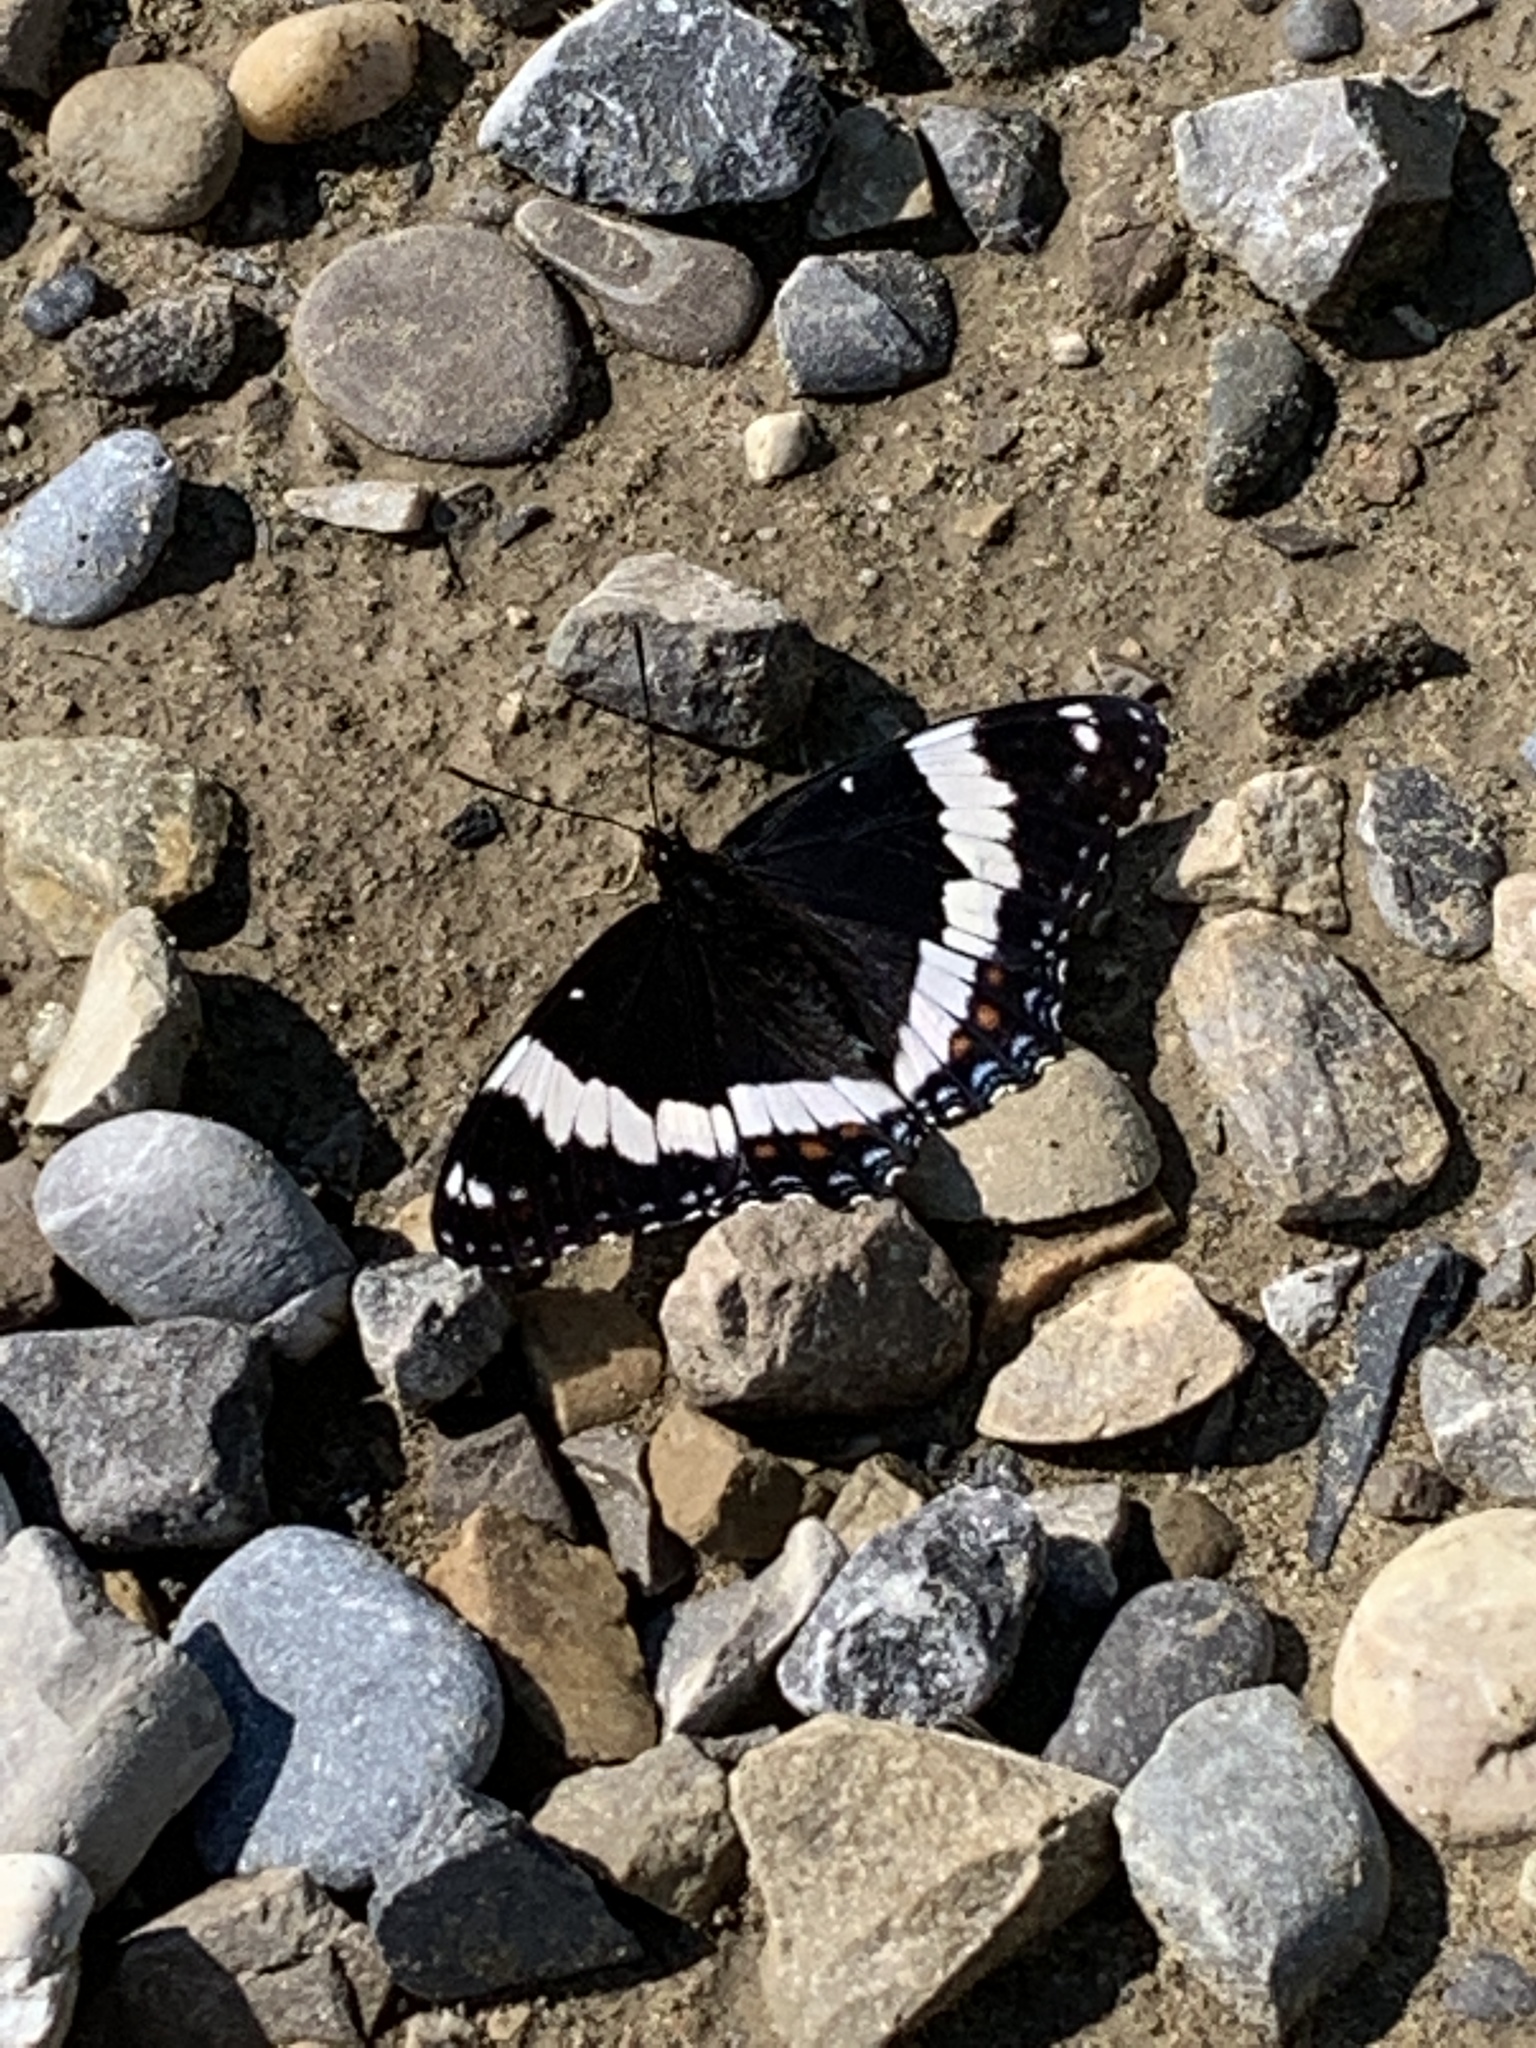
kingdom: Animalia
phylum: Arthropoda
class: Insecta
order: Lepidoptera
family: Nymphalidae
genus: Limenitis
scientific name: Limenitis arthemis
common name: Red-spotted admiral
